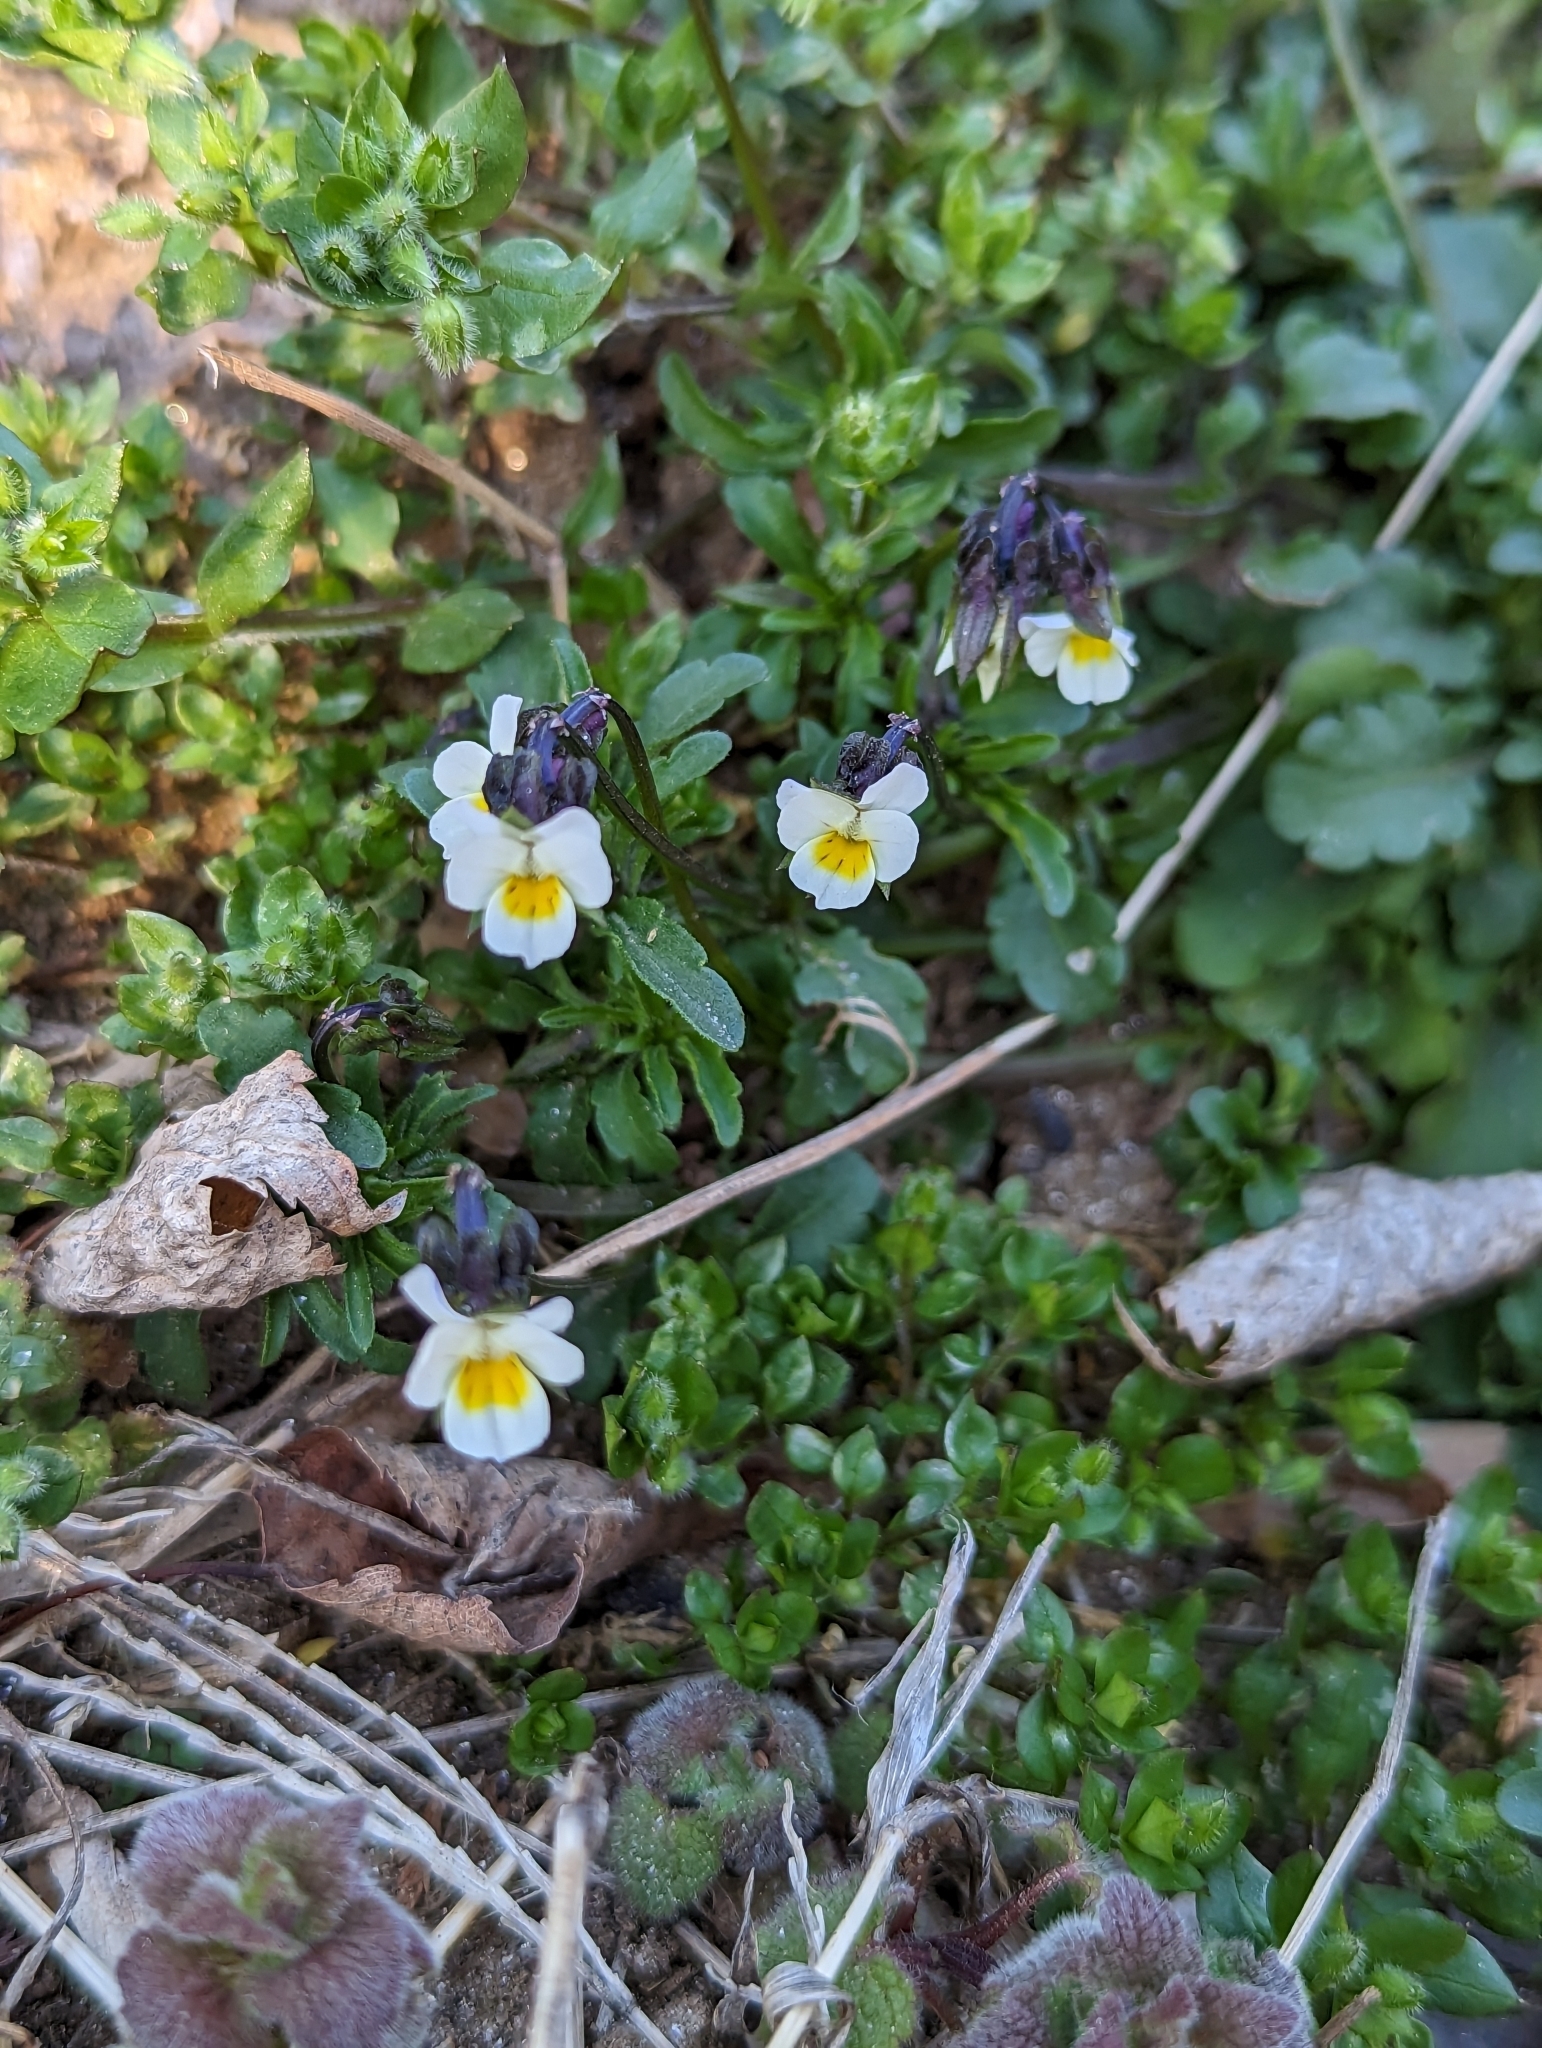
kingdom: Plantae
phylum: Tracheophyta
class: Magnoliopsida
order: Malpighiales
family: Violaceae
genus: Viola
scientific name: Viola arvensis
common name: Field pansy
